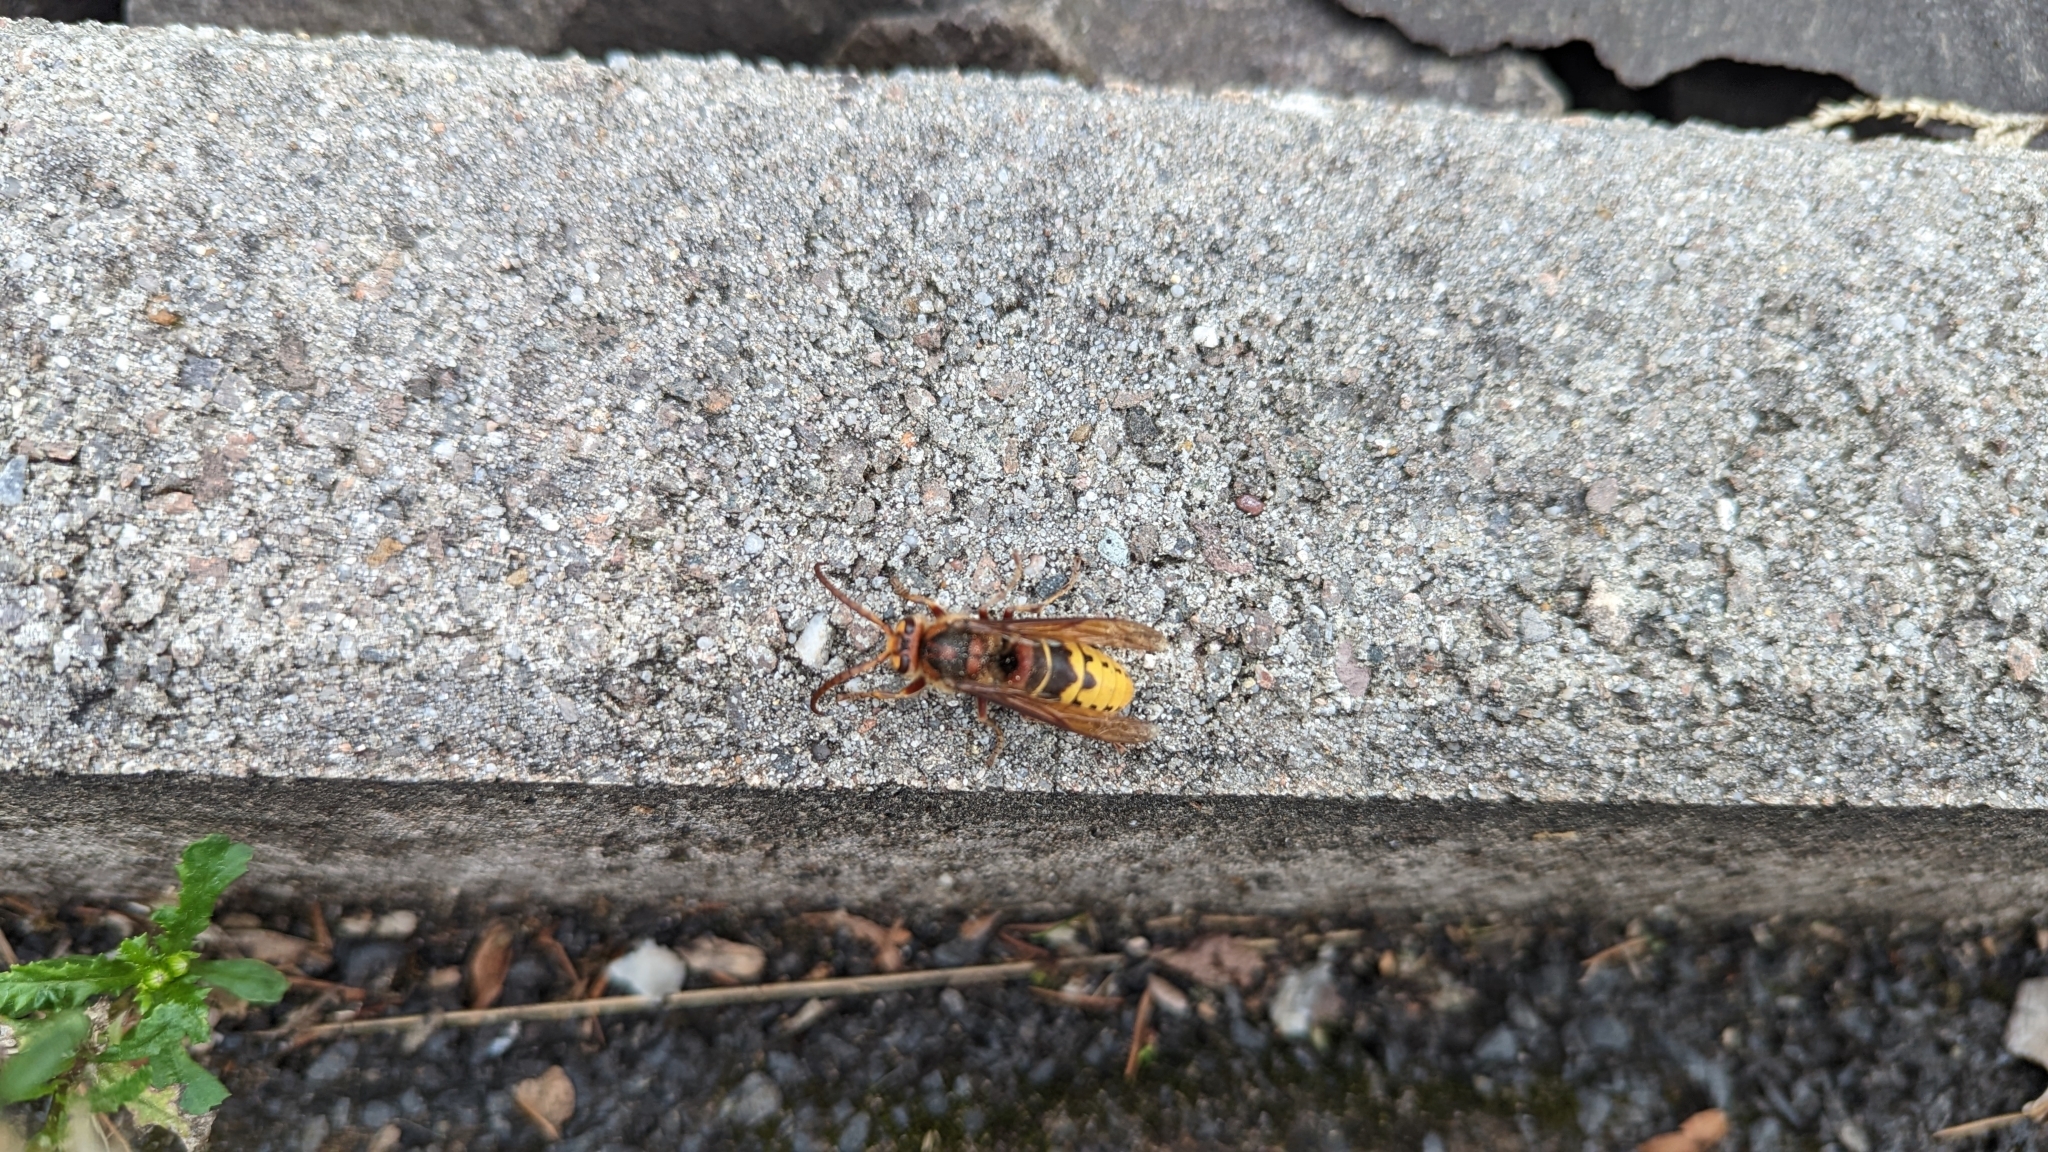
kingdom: Animalia
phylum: Arthropoda
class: Insecta
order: Hymenoptera
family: Vespidae
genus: Vespa
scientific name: Vespa crabro
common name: Hornet
